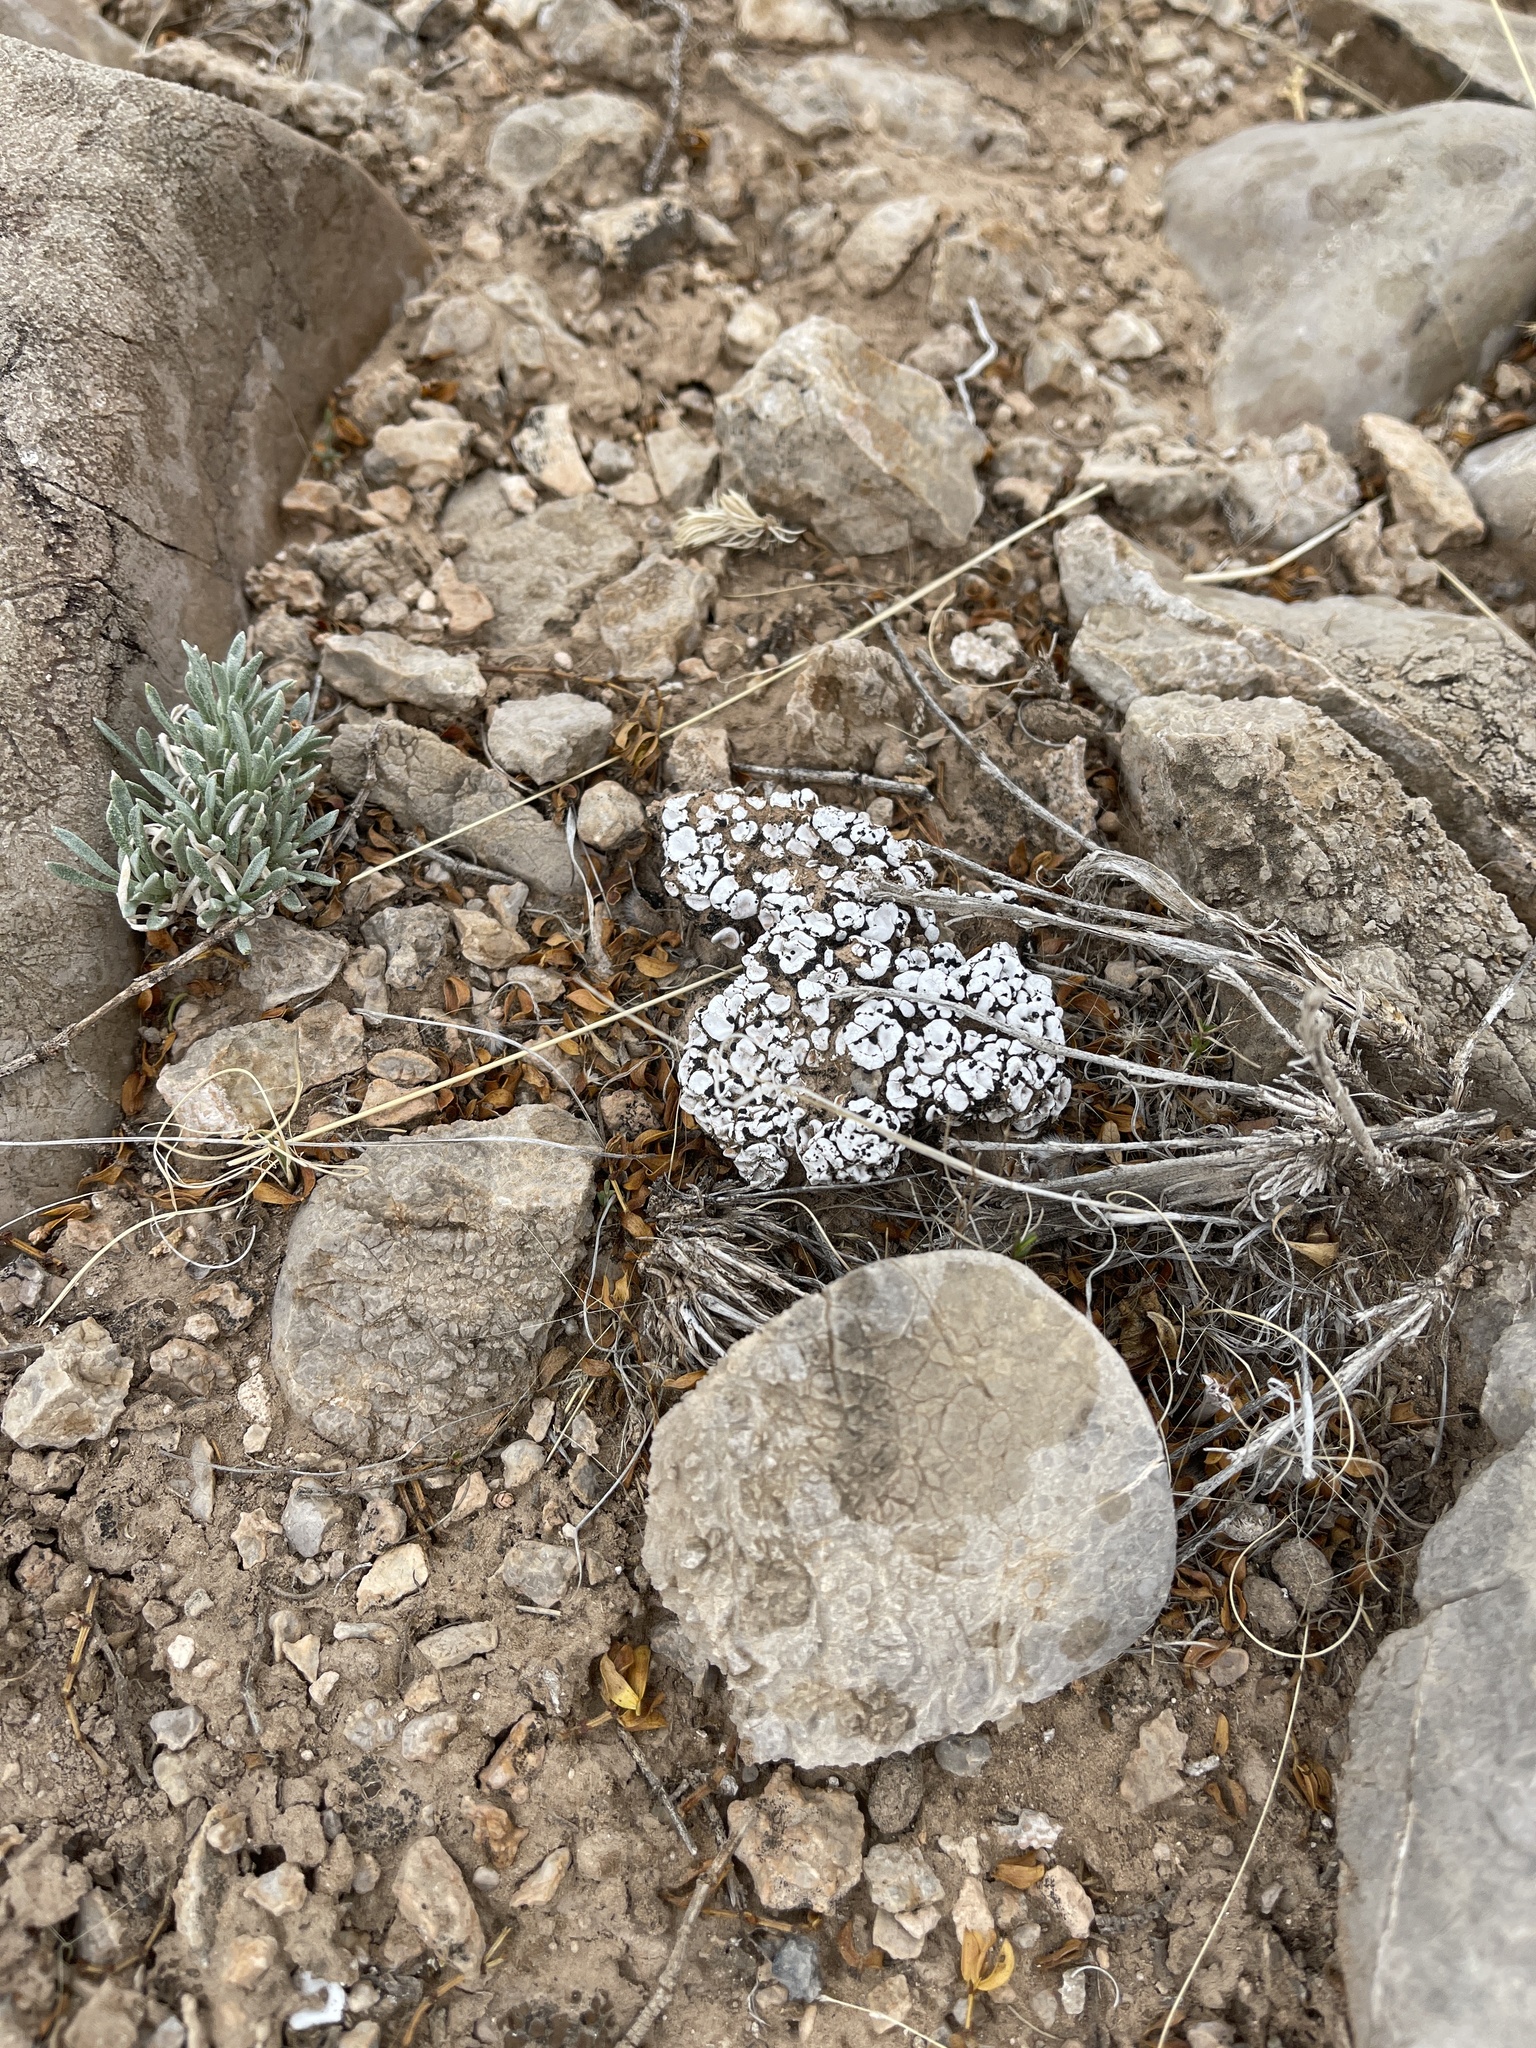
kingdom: Fungi
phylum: Ascomycota
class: Lecanoromycetes
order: Lecanorales
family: Psoraceae
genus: Psora
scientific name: Psora crenata
